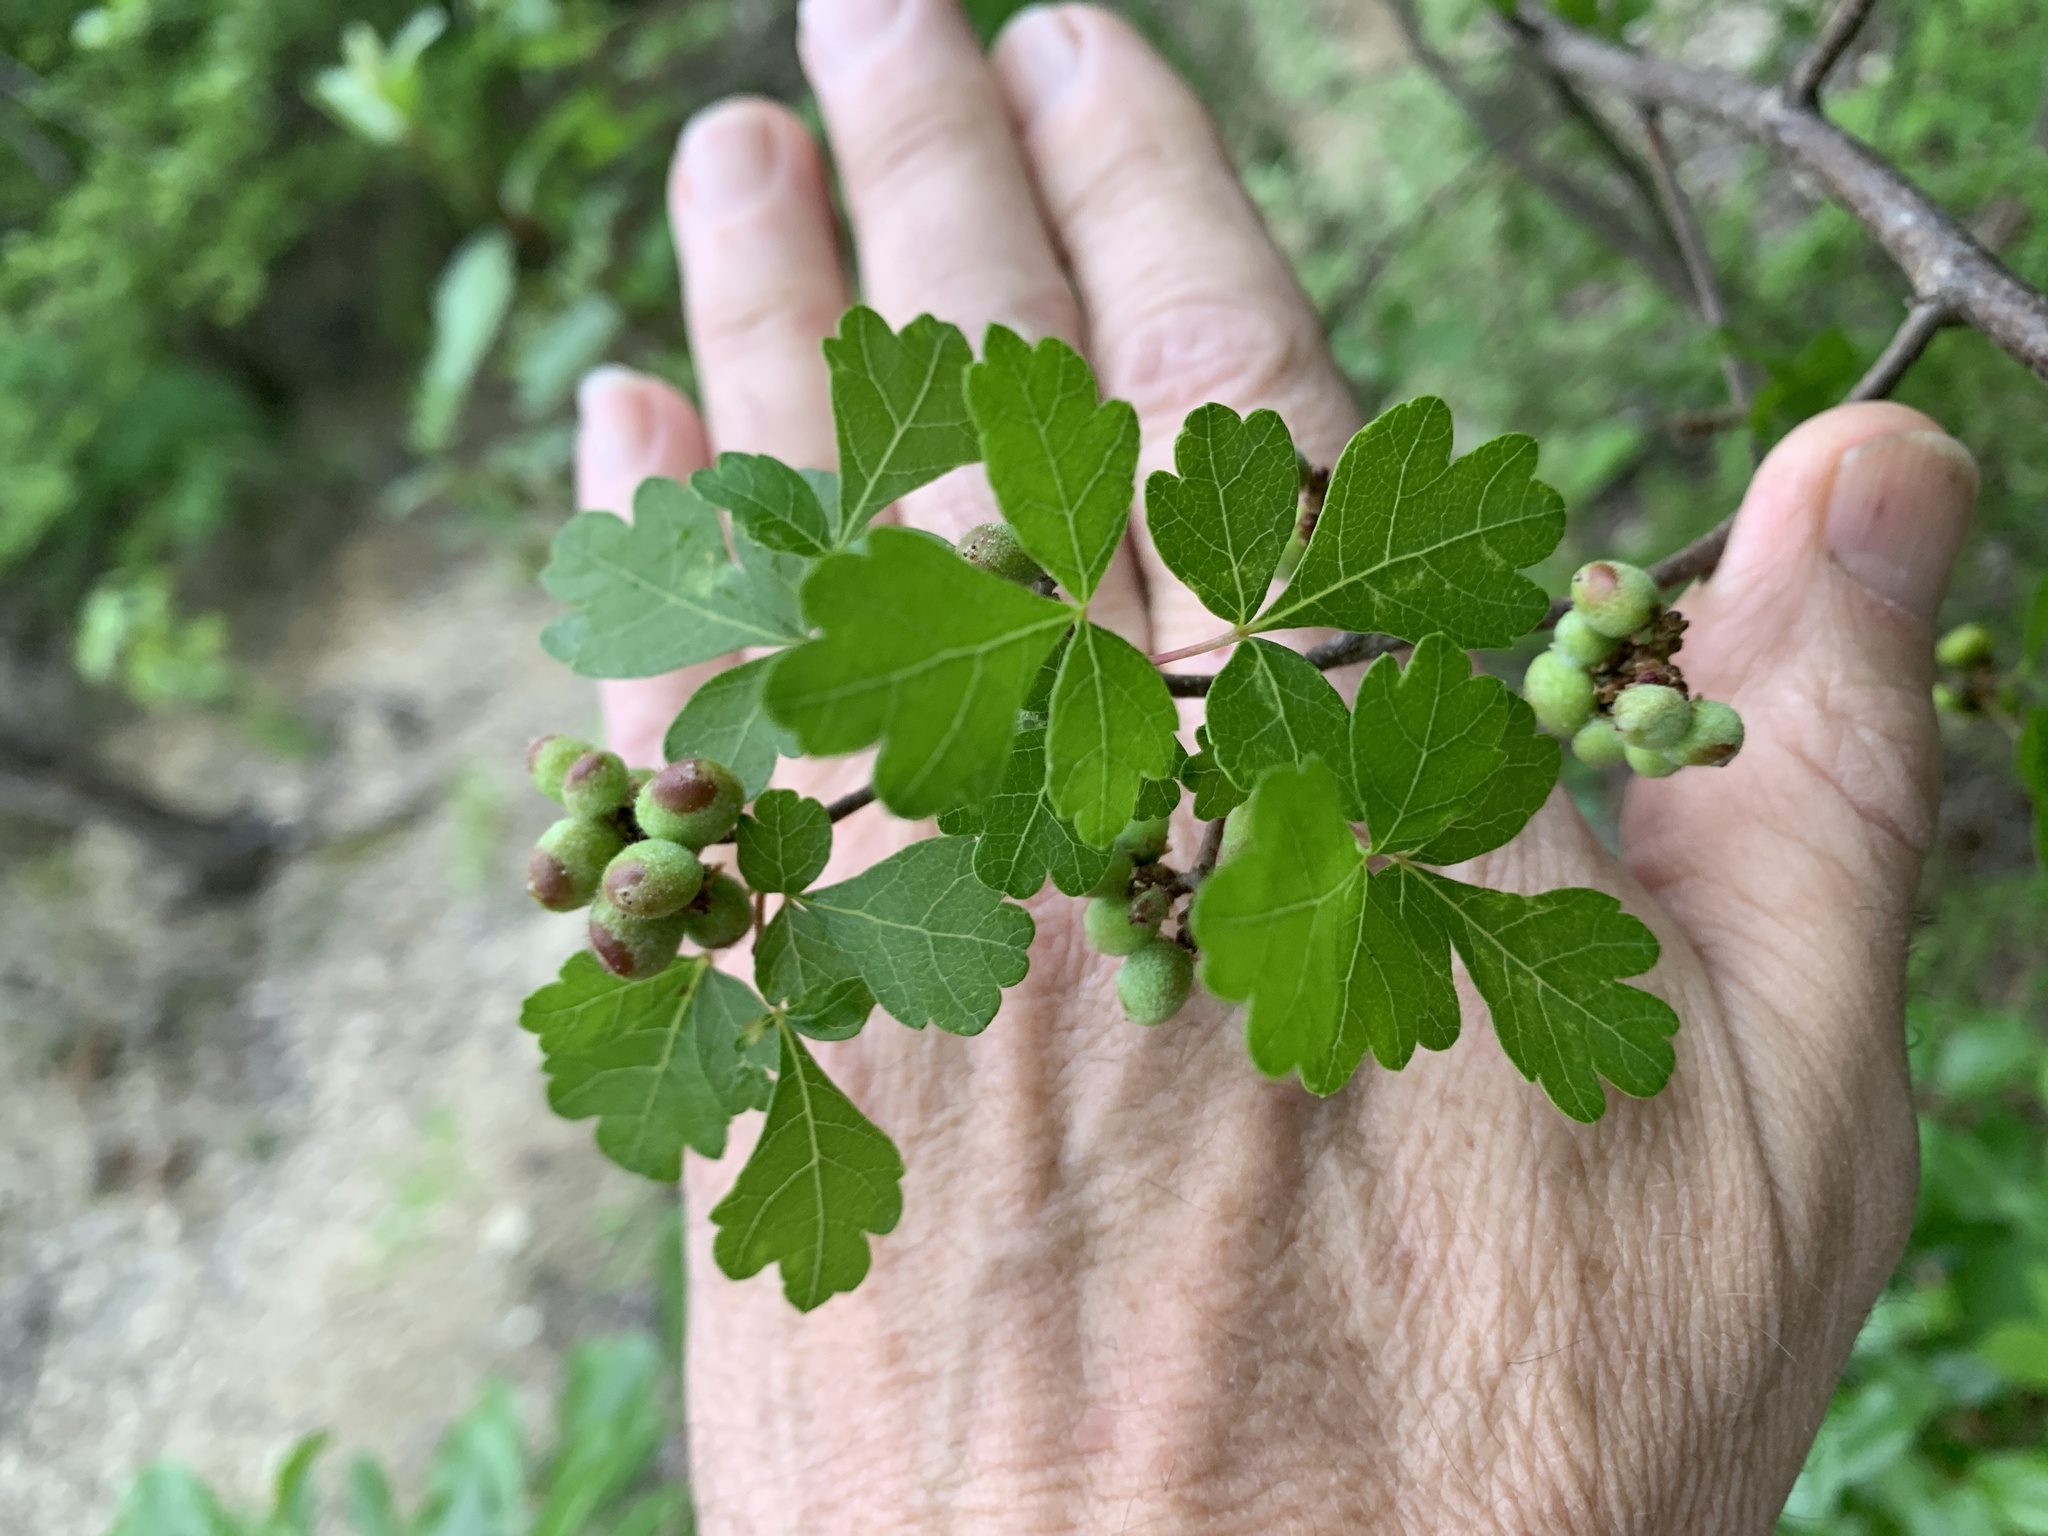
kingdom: Plantae
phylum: Tracheophyta
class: Magnoliopsida
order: Sapindales
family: Anacardiaceae
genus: Rhus
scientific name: Rhus aromatica
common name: Aromatic sumac
